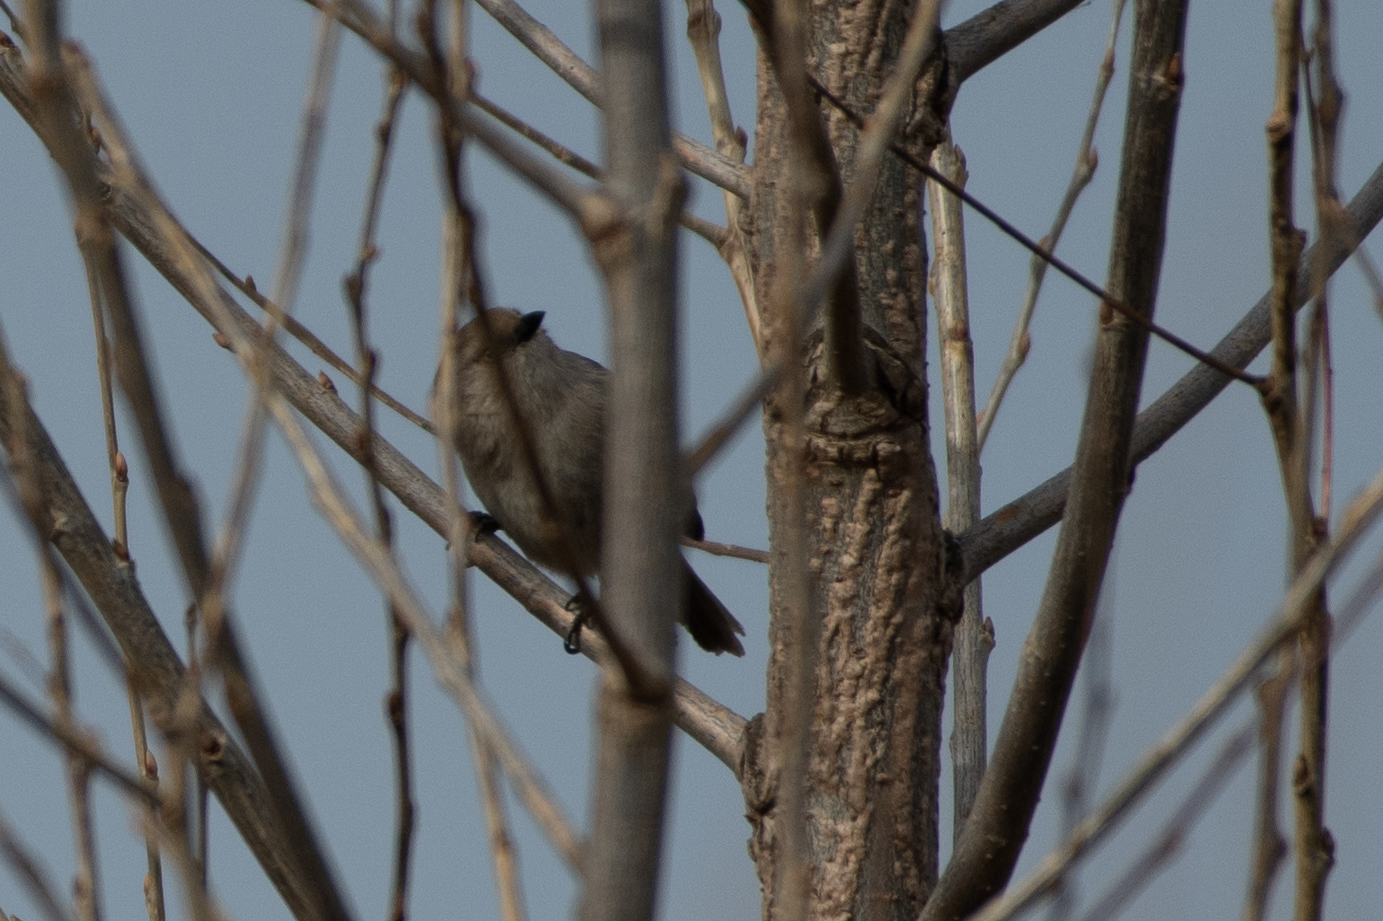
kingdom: Animalia
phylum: Chordata
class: Aves
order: Passeriformes
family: Aegithalidae
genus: Psaltriparus
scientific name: Psaltriparus minimus
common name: American bushtit
